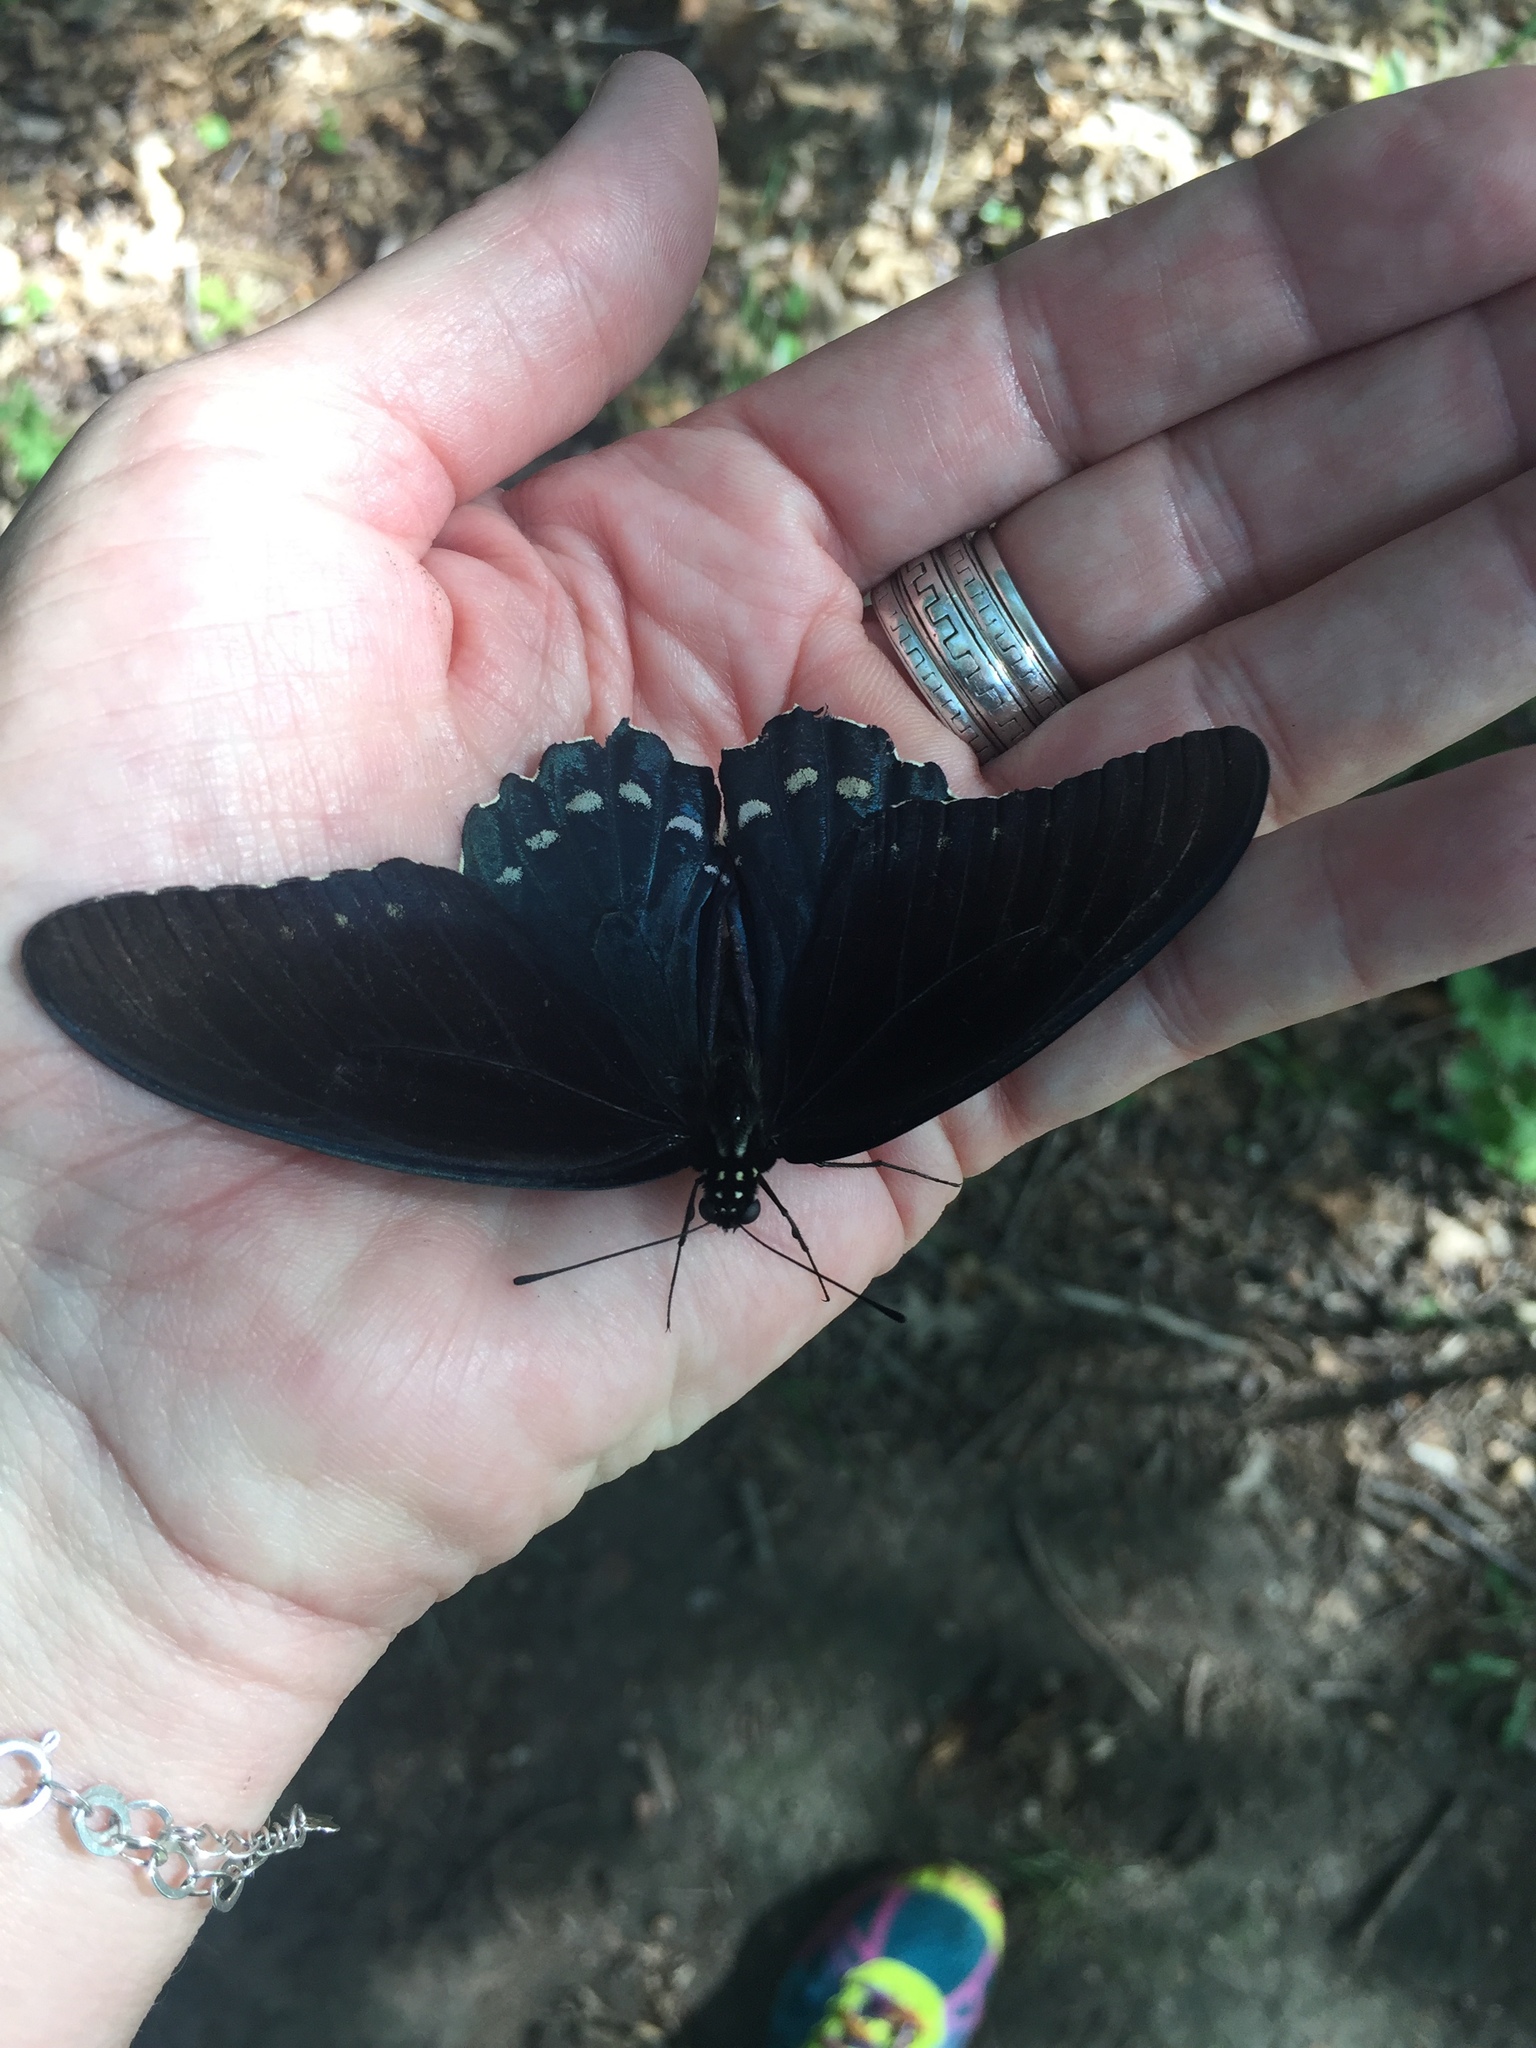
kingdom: Animalia
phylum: Arthropoda
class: Insecta
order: Lepidoptera
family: Papilionidae
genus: Battus
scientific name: Battus philenor
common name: Pipevine swallowtail
